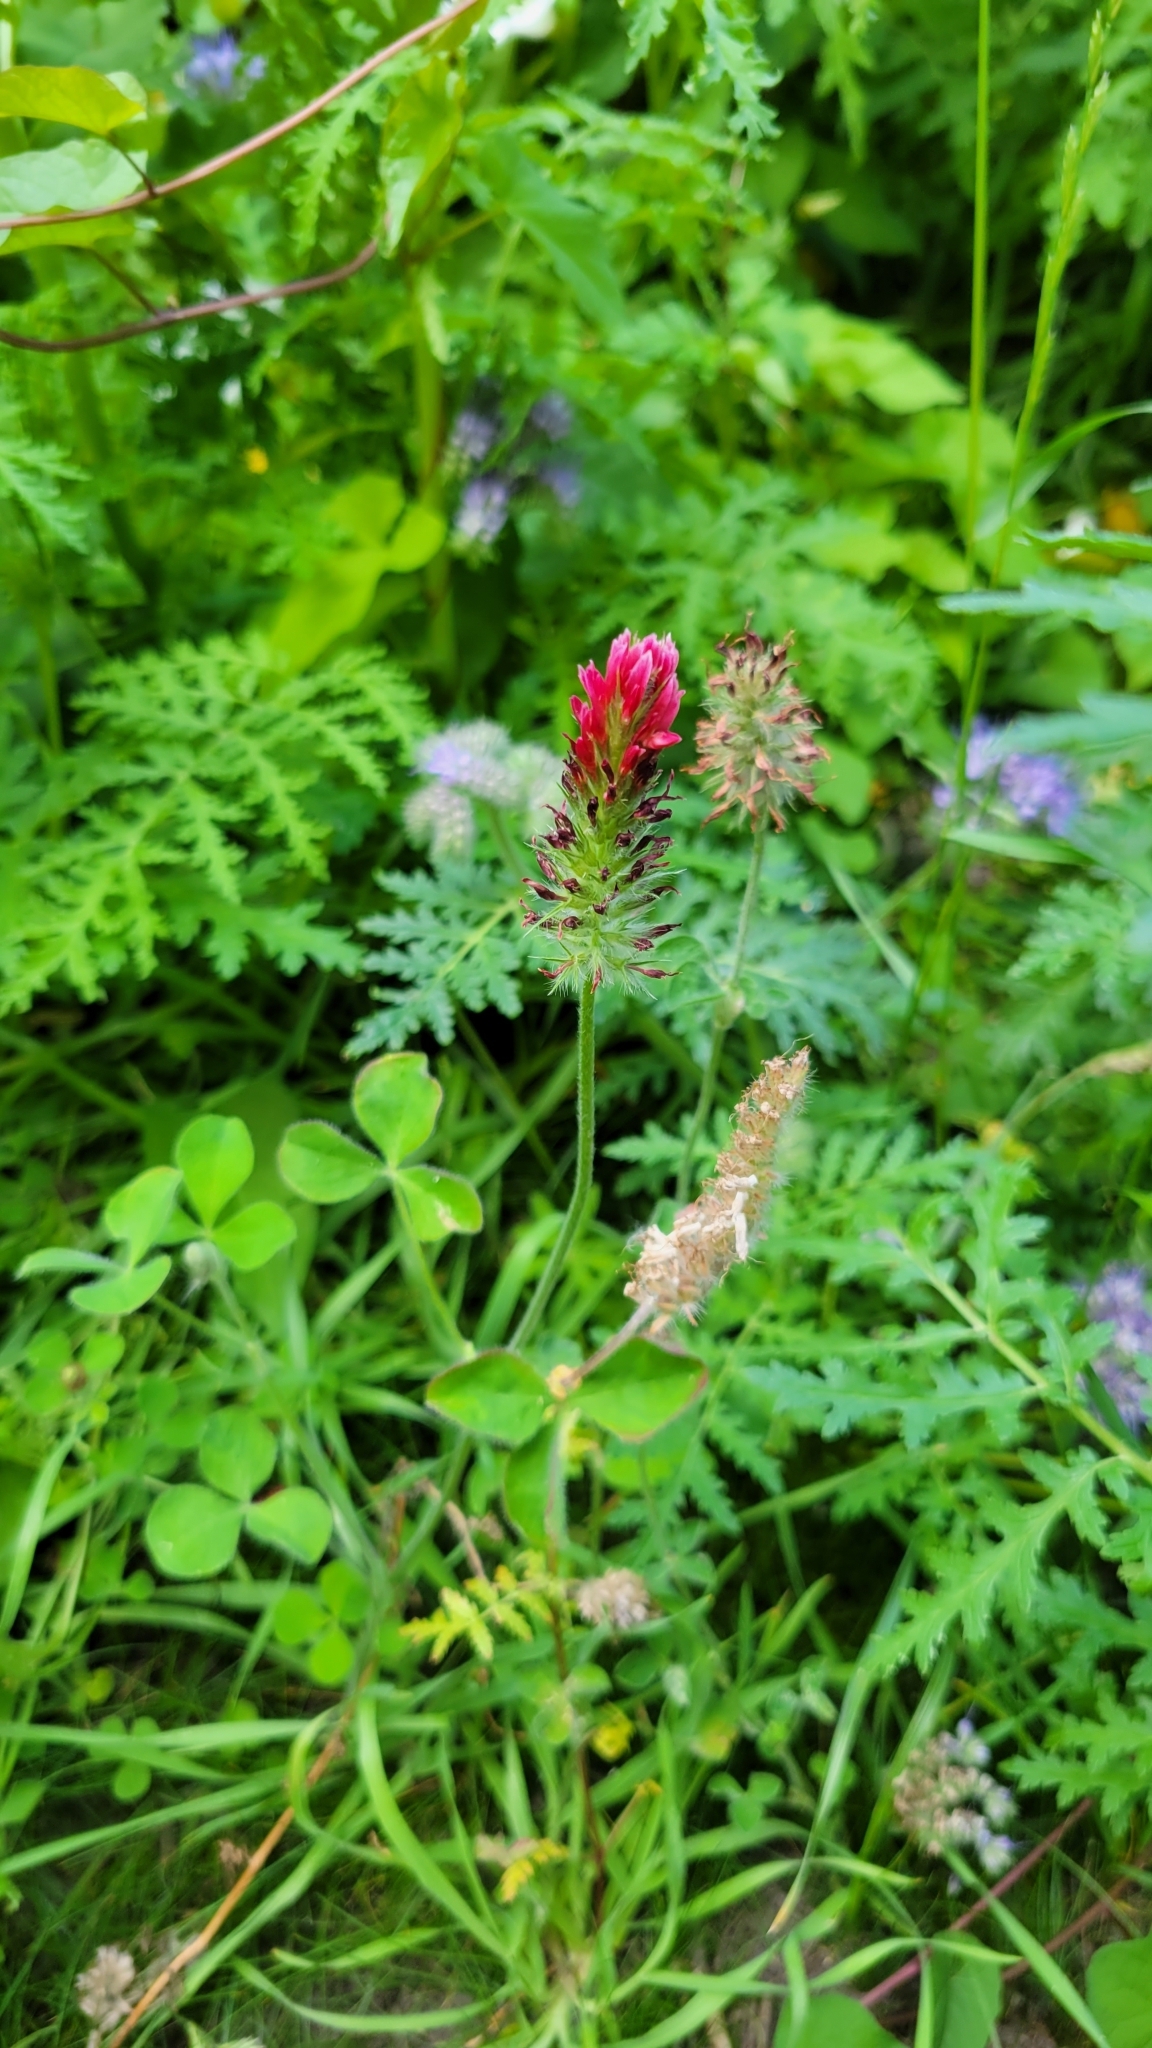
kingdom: Plantae
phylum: Tracheophyta
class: Magnoliopsida
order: Fabales
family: Fabaceae
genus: Trifolium
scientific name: Trifolium incarnatum
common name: Crimson clover
